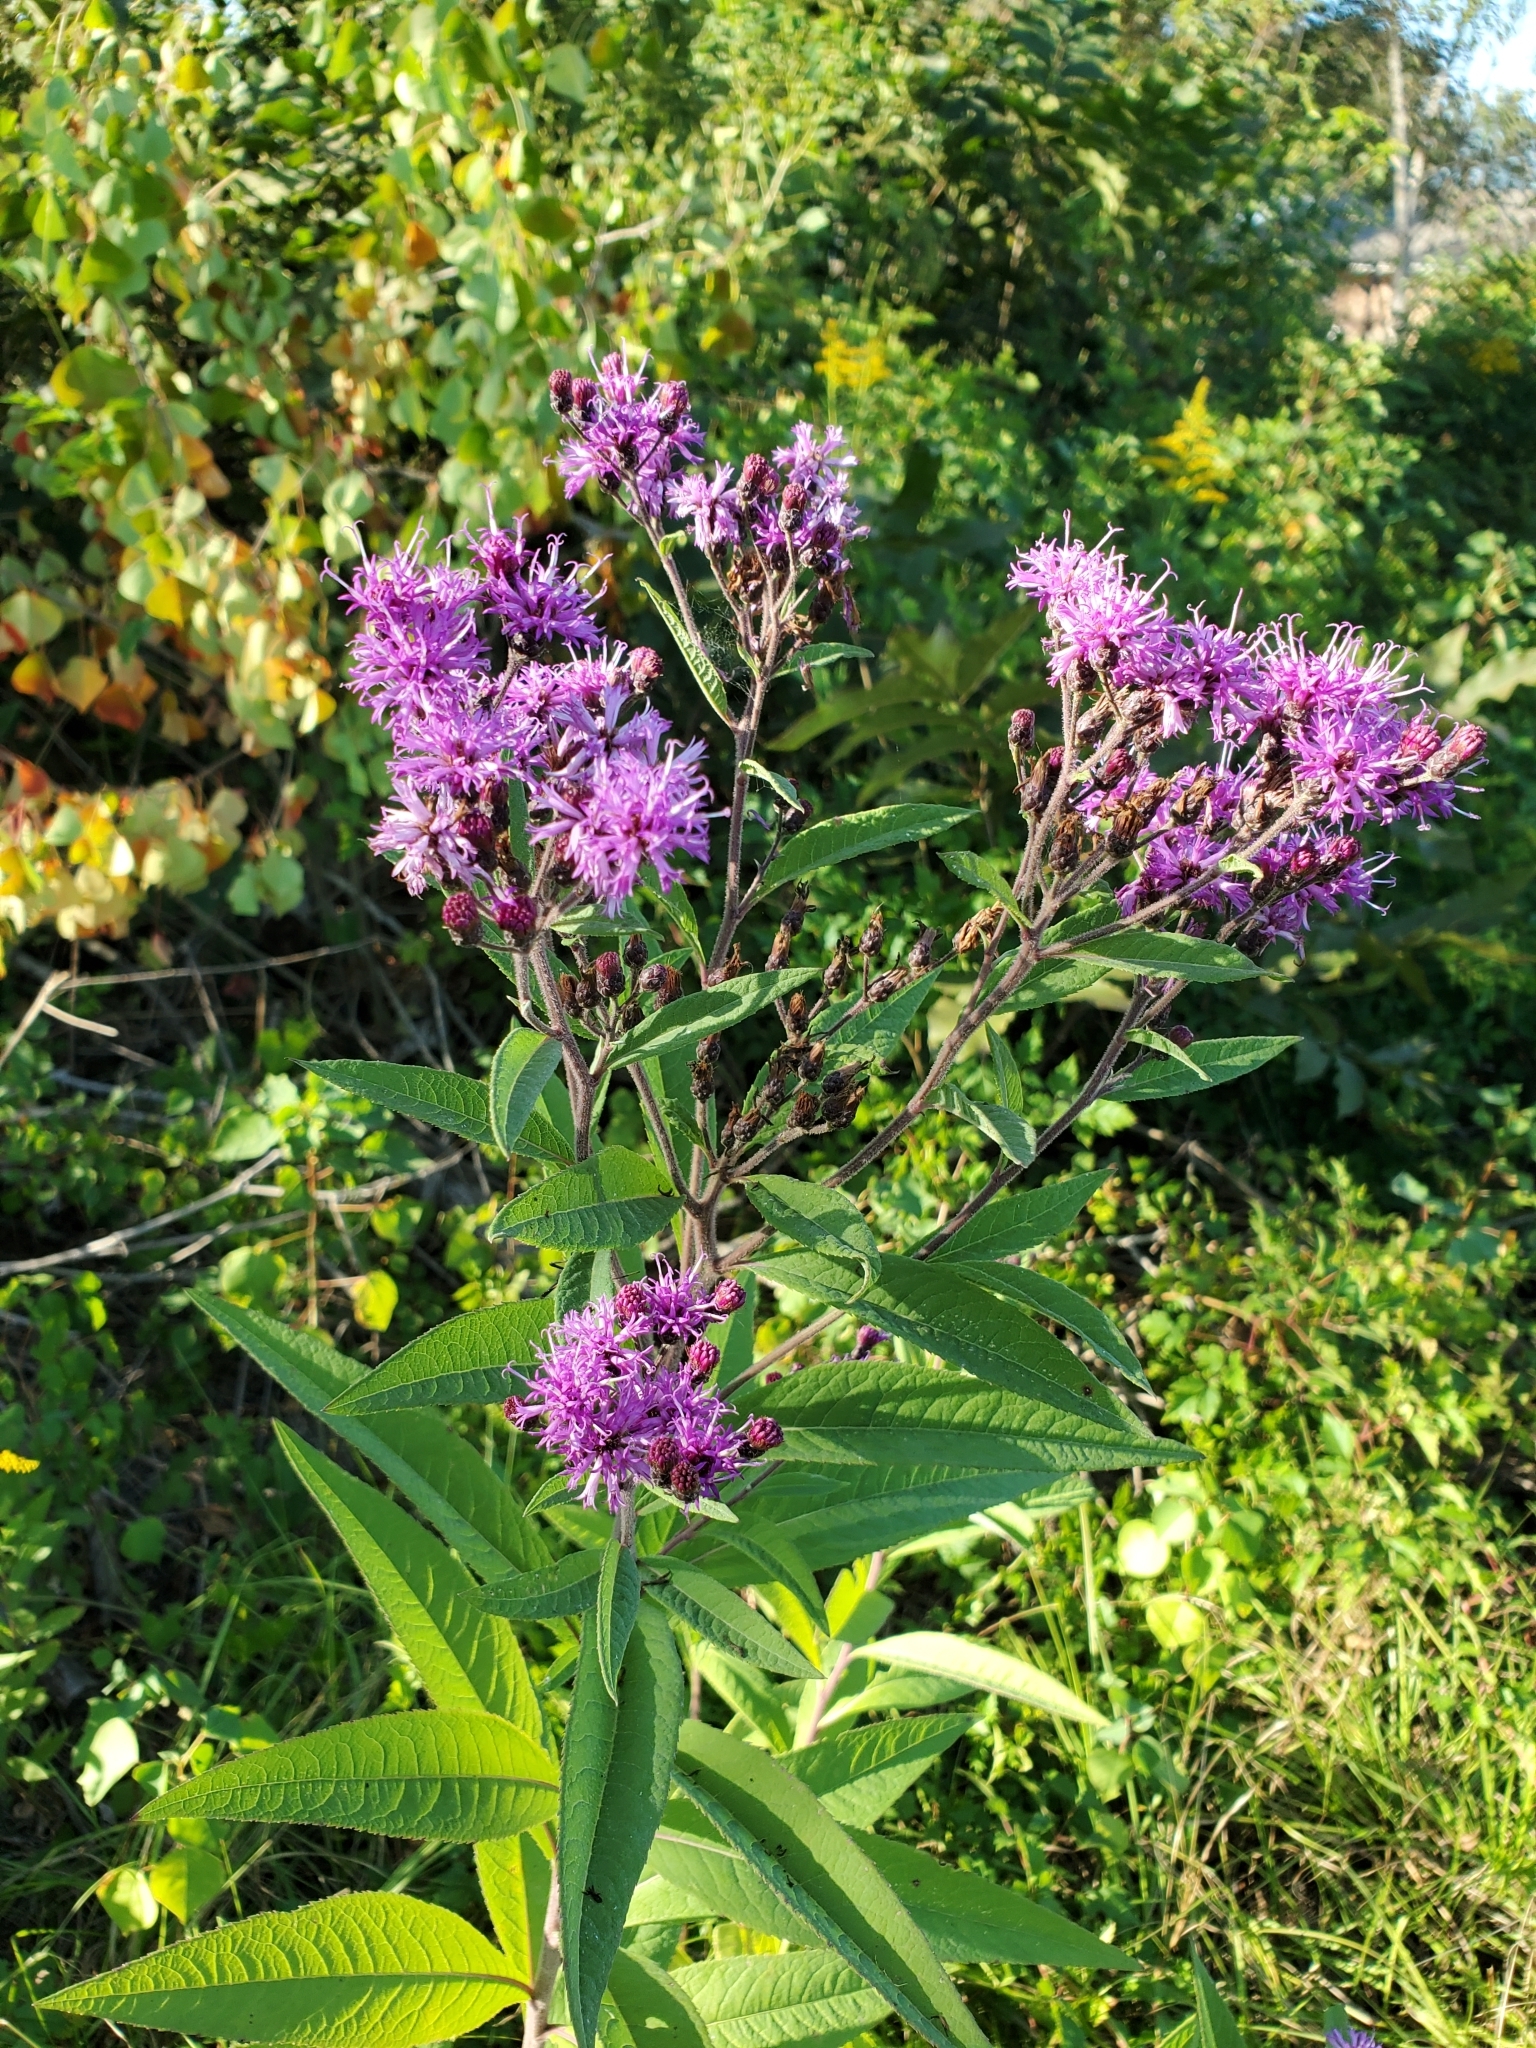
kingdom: Plantae
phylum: Tracheophyta
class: Magnoliopsida
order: Asterales
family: Asteraceae
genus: Vernonia
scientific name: Vernonia gigantea
